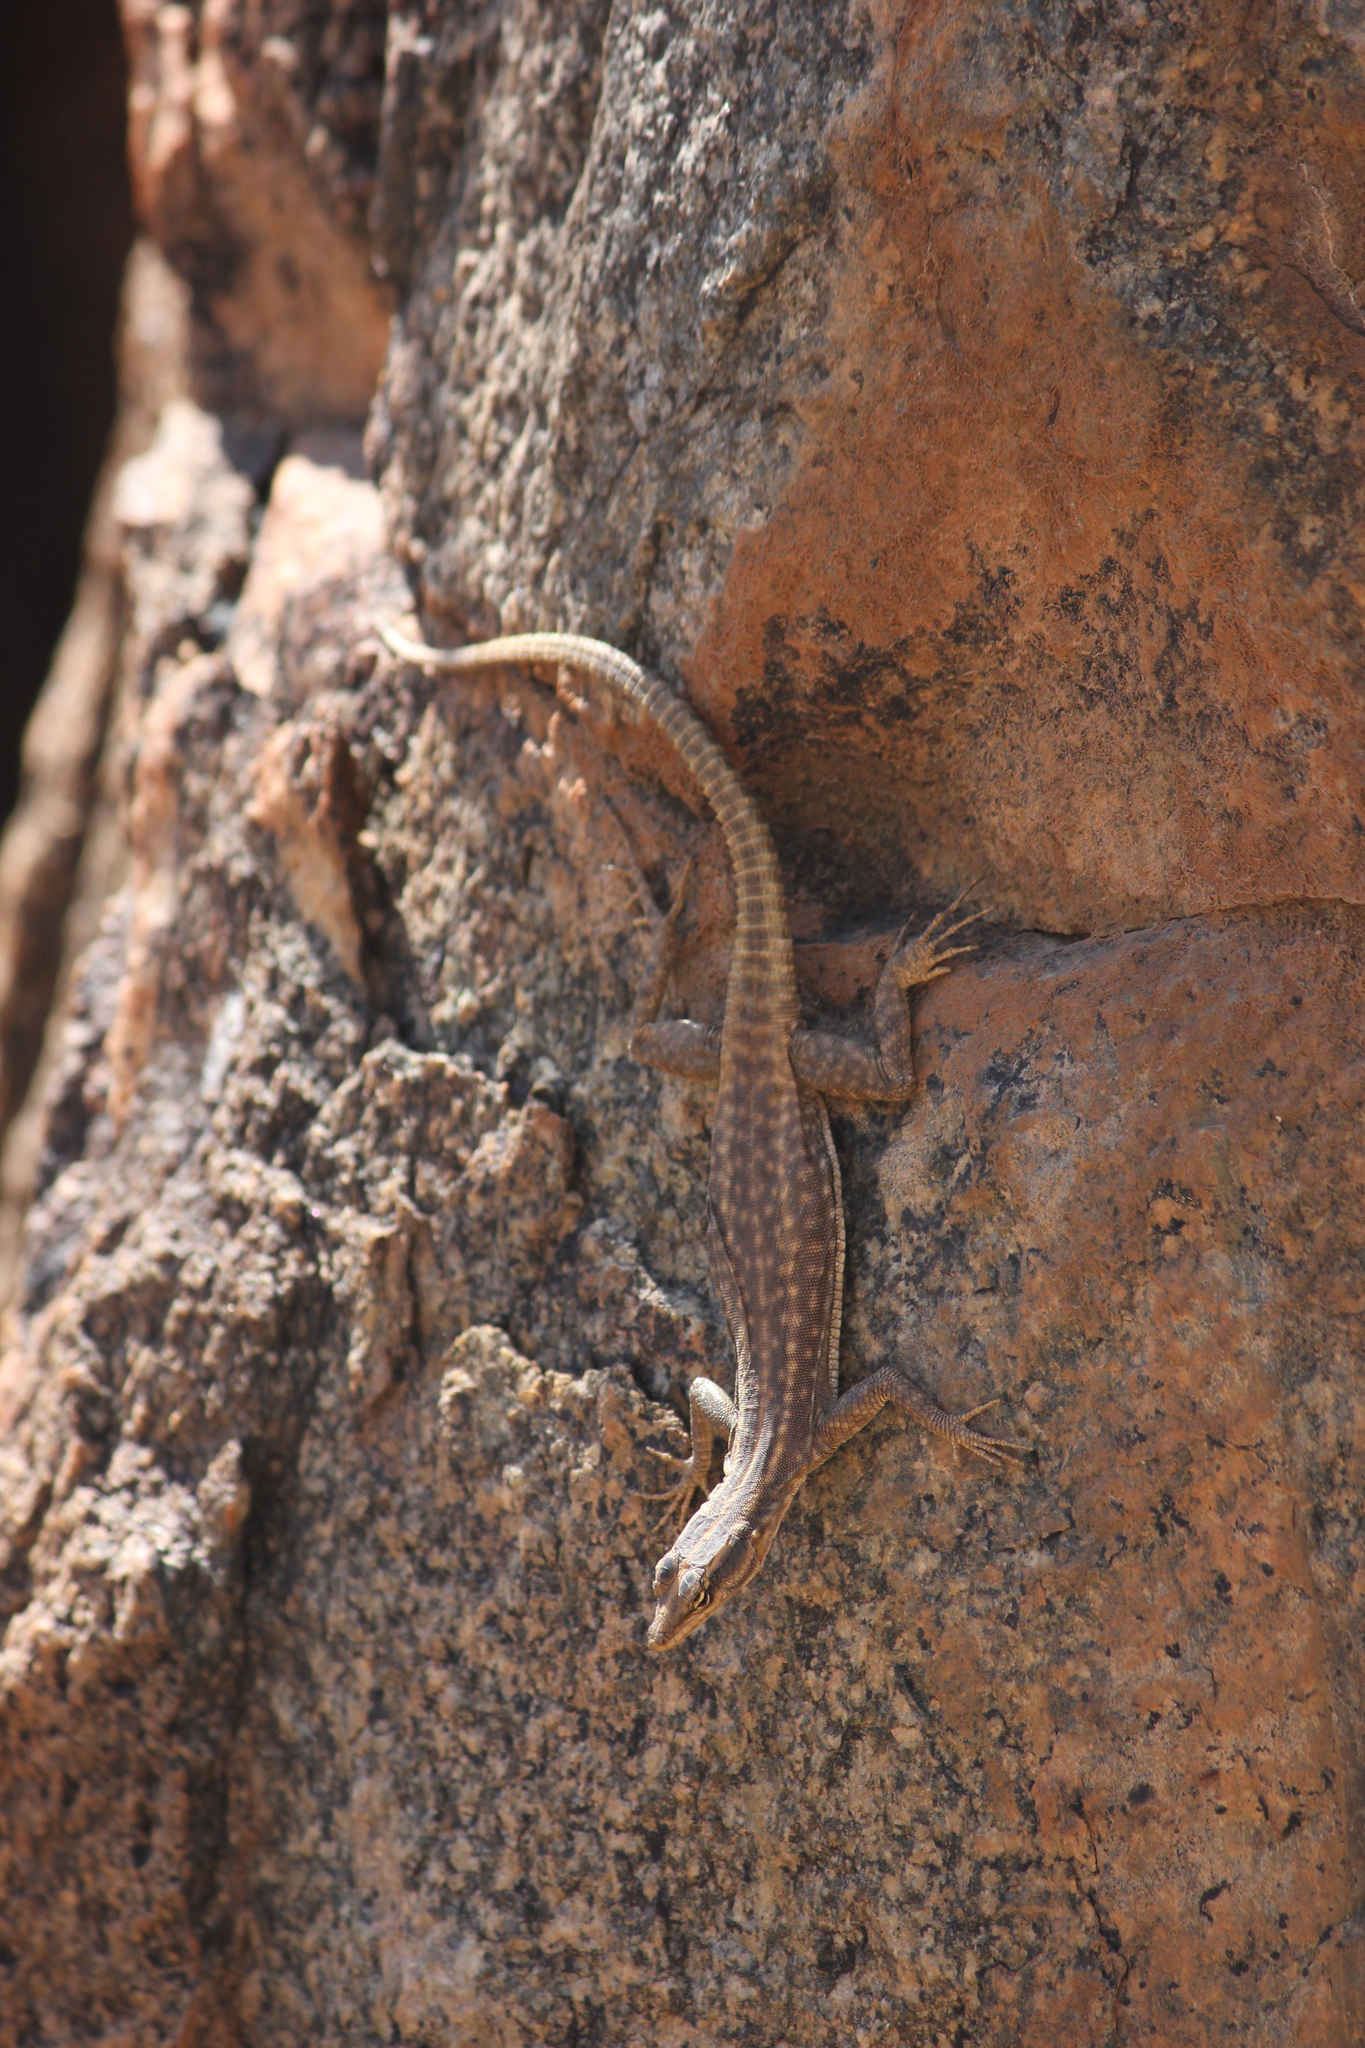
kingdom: Animalia
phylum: Chordata
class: Squamata
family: Cordylidae
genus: Platysaurus
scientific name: Platysaurus attenboroughi
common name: Attenborough’s flat lizard
